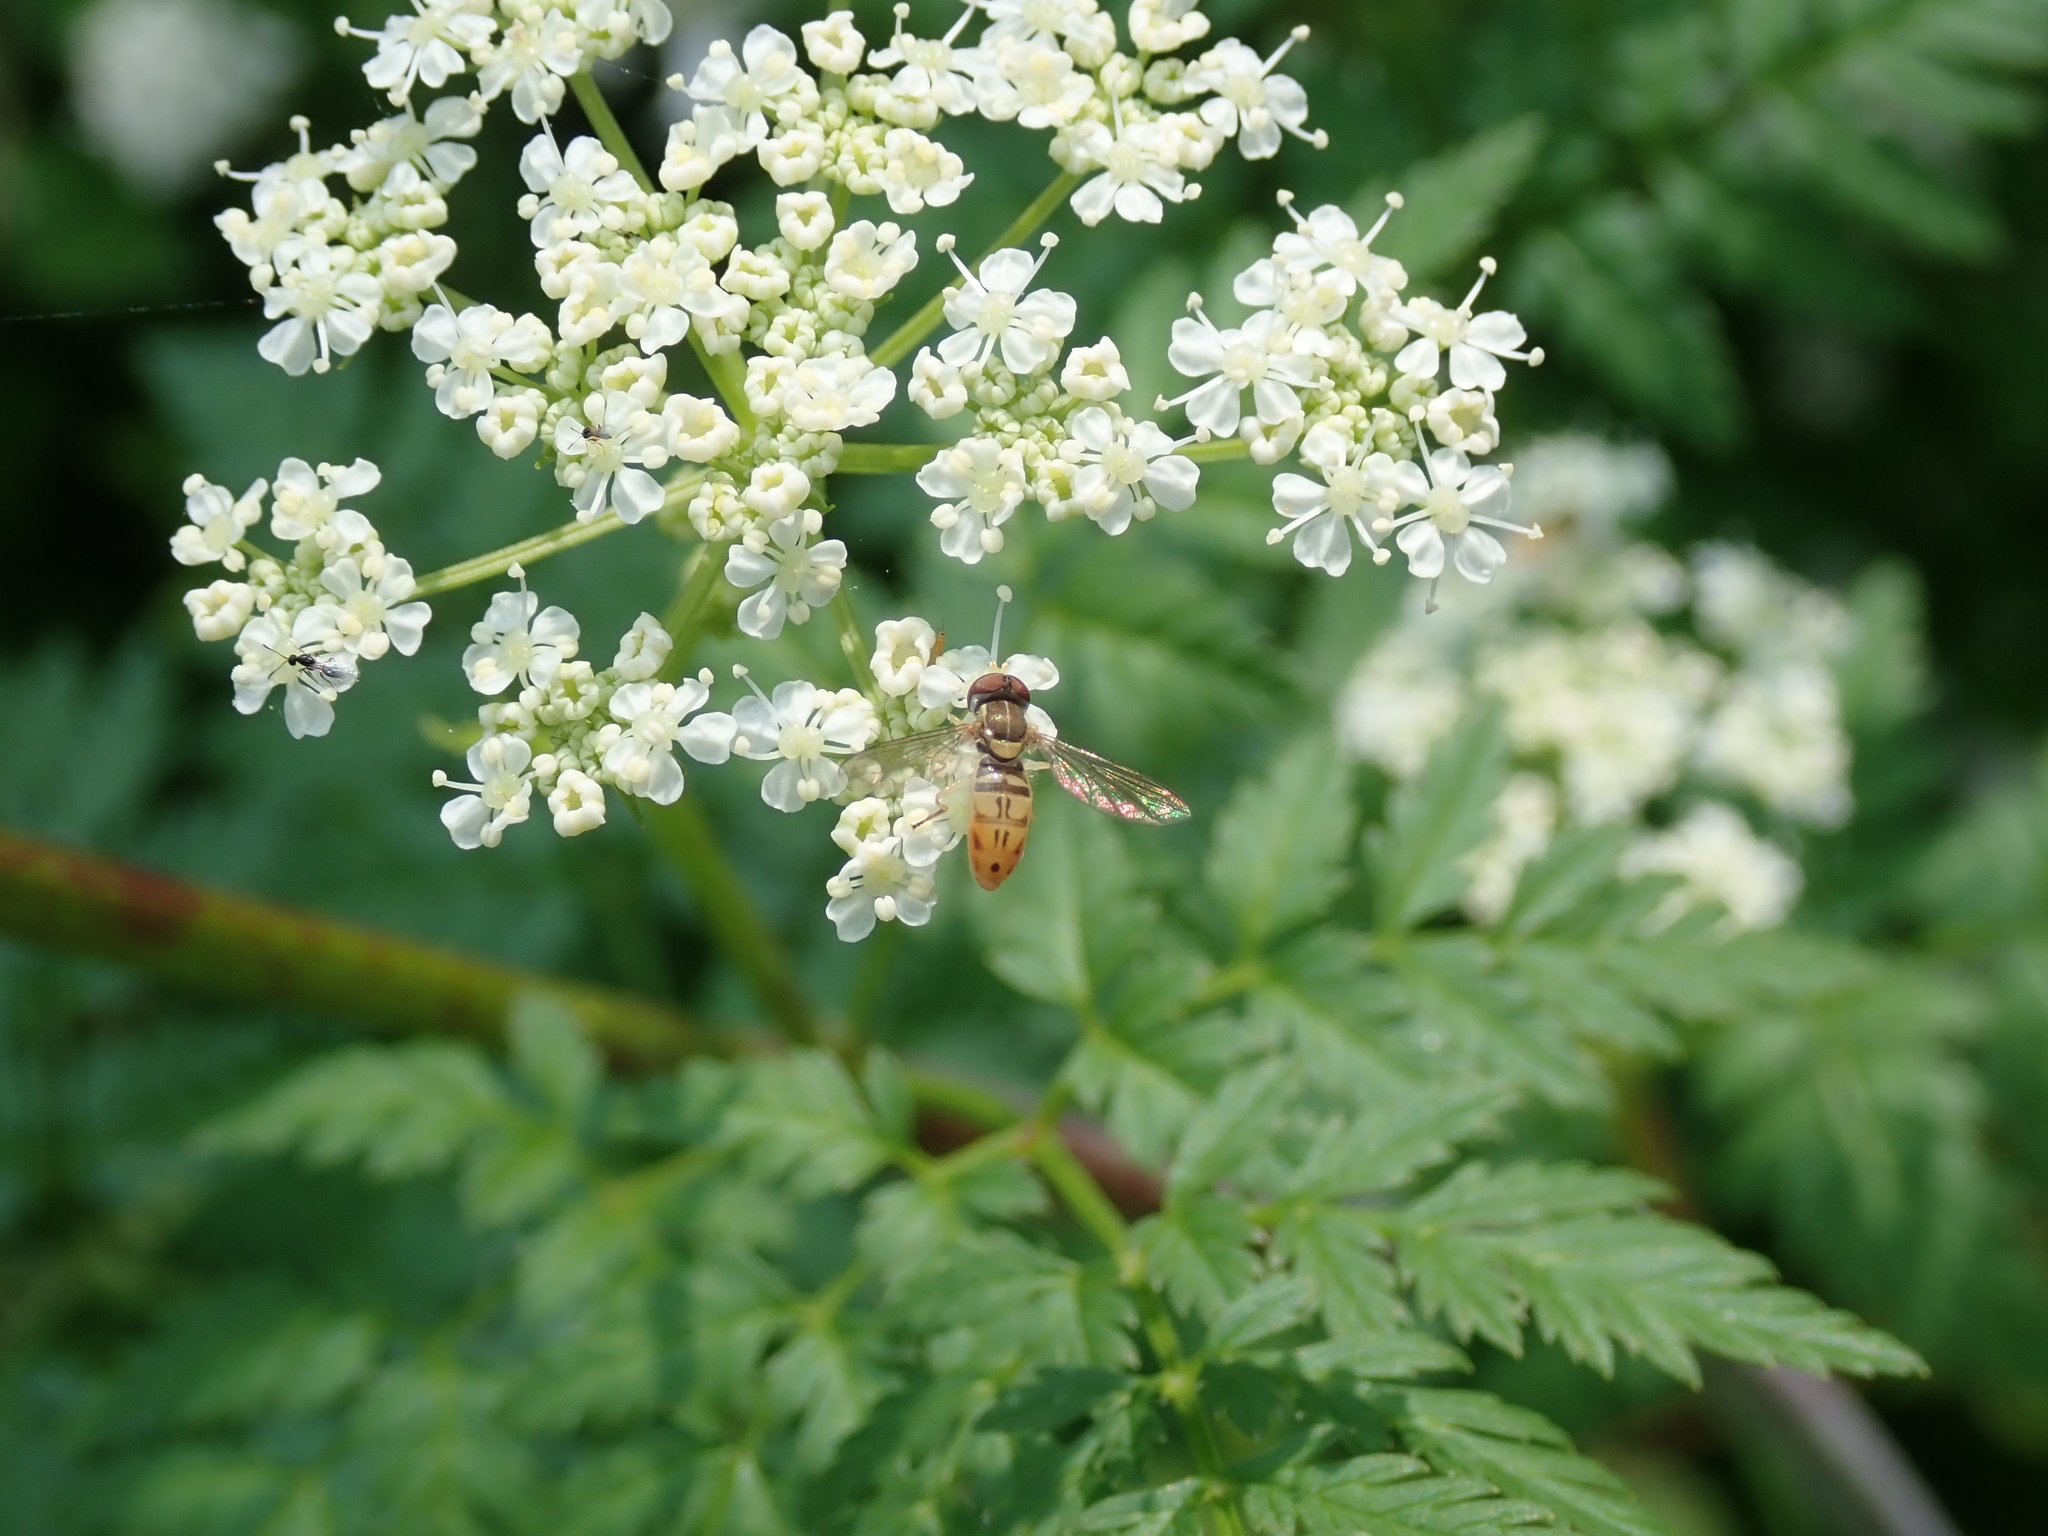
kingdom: Animalia
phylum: Arthropoda
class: Insecta
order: Diptera
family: Syrphidae
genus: Toxomerus
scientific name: Toxomerus marginatus
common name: Syrphid fly
